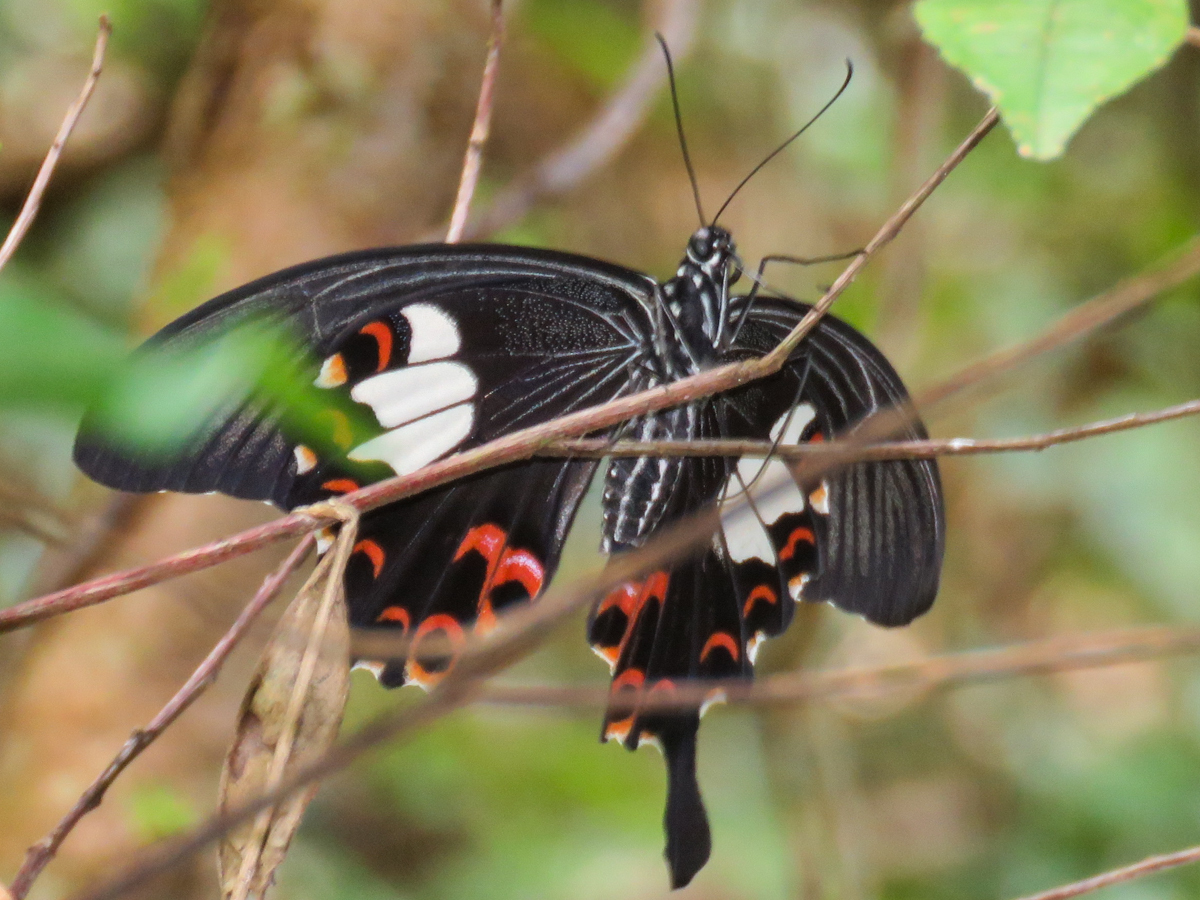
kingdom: Animalia
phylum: Arthropoda
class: Insecta
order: Lepidoptera
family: Papilionidae
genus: Papilio
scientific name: Papilio helenus
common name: Red helen
